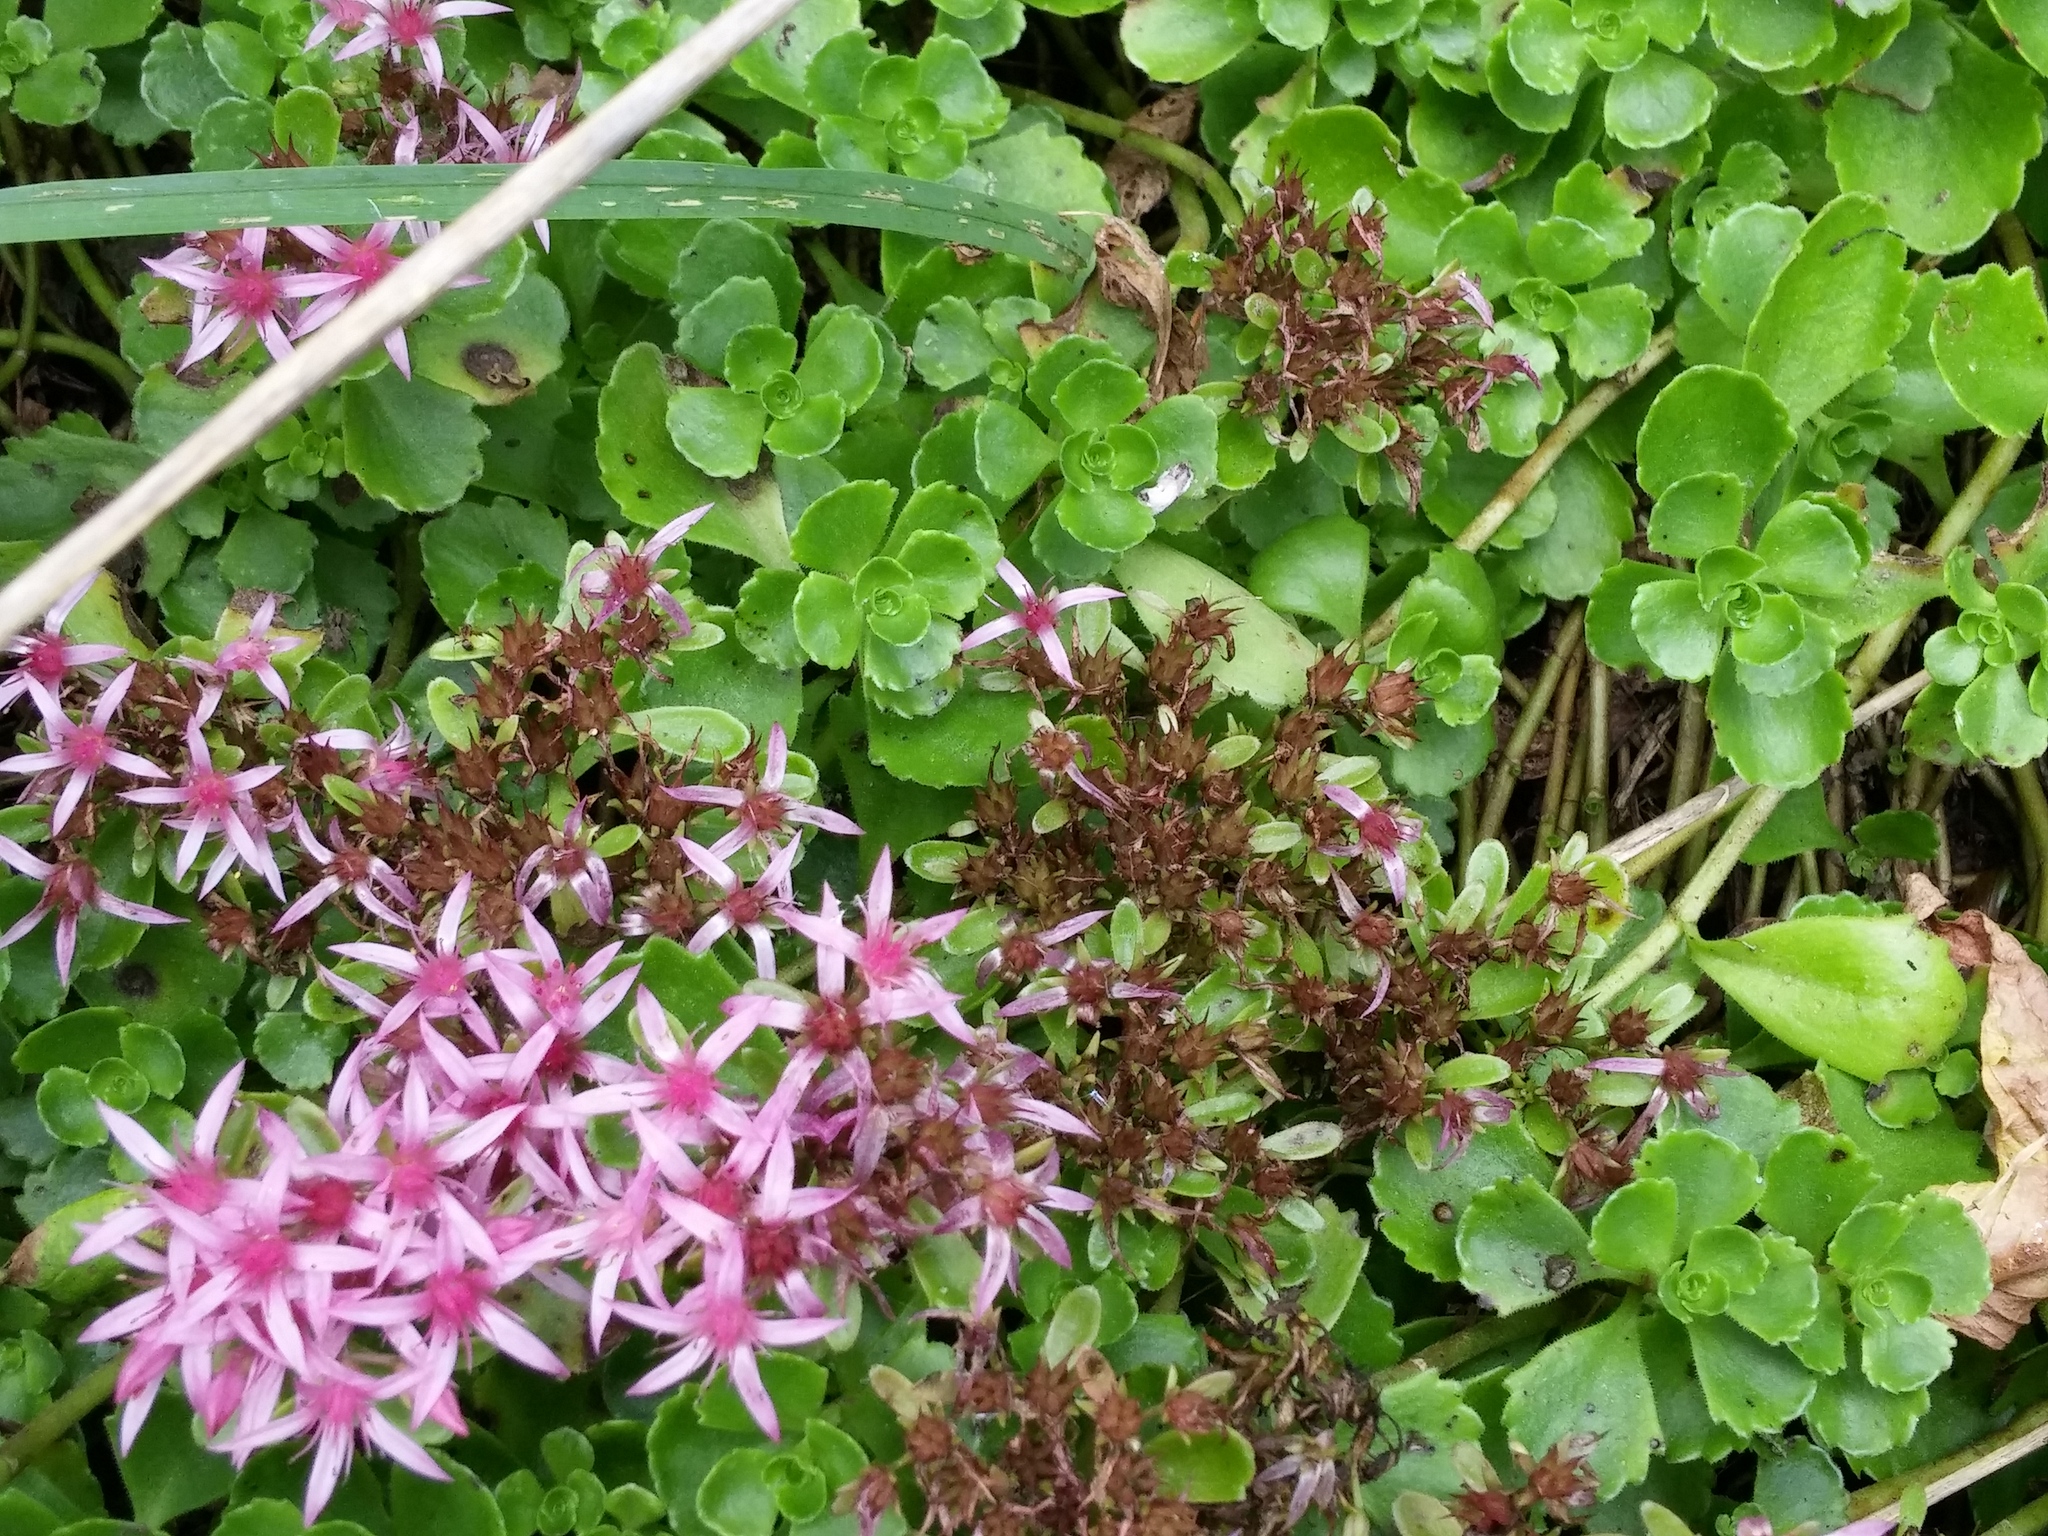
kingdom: Plantae
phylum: Tracheophyta
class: Magnoliopsida
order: Saxifragales
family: Crassulaceae
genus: Phedimus
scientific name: Phedimus spurius
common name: Caucasian stonecrop
